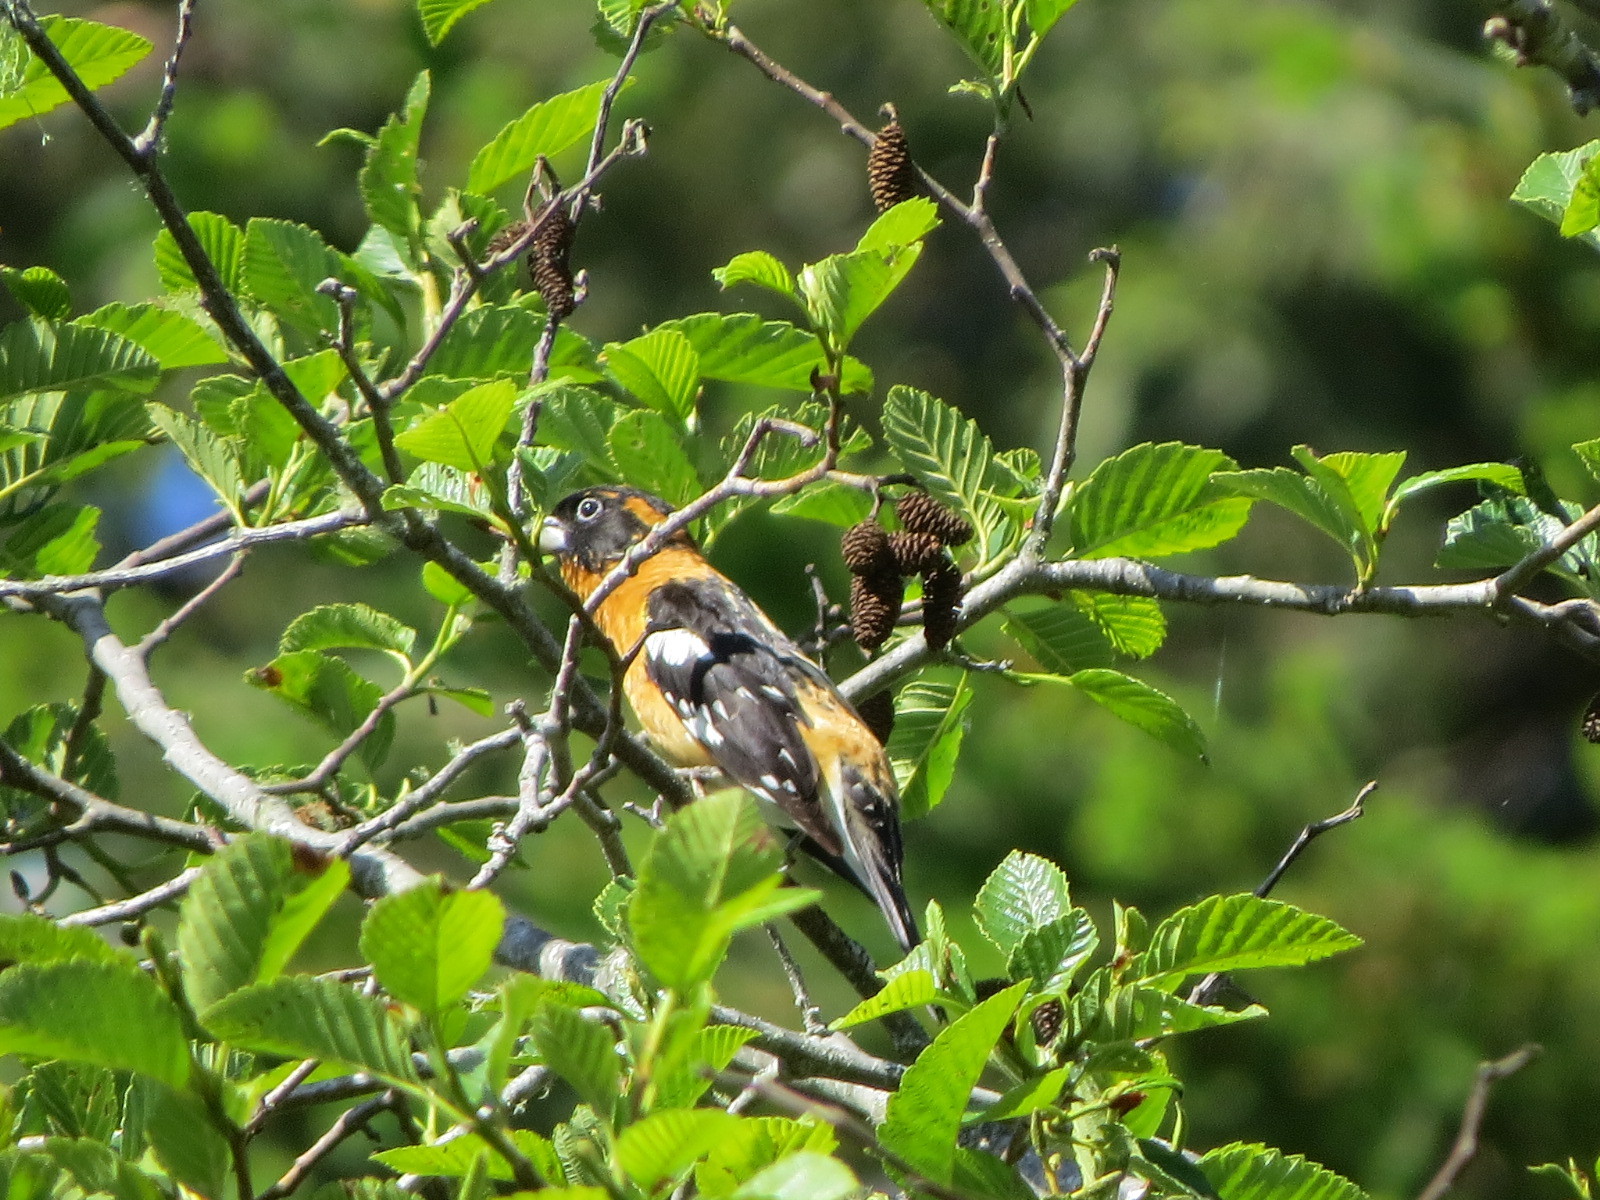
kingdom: Animalia
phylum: Chordata
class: Aves
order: Passeriformes
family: Cardinalidae
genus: Pheucticus
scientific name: Pheucticus melanocephalus
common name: Black-headed grosbeak
